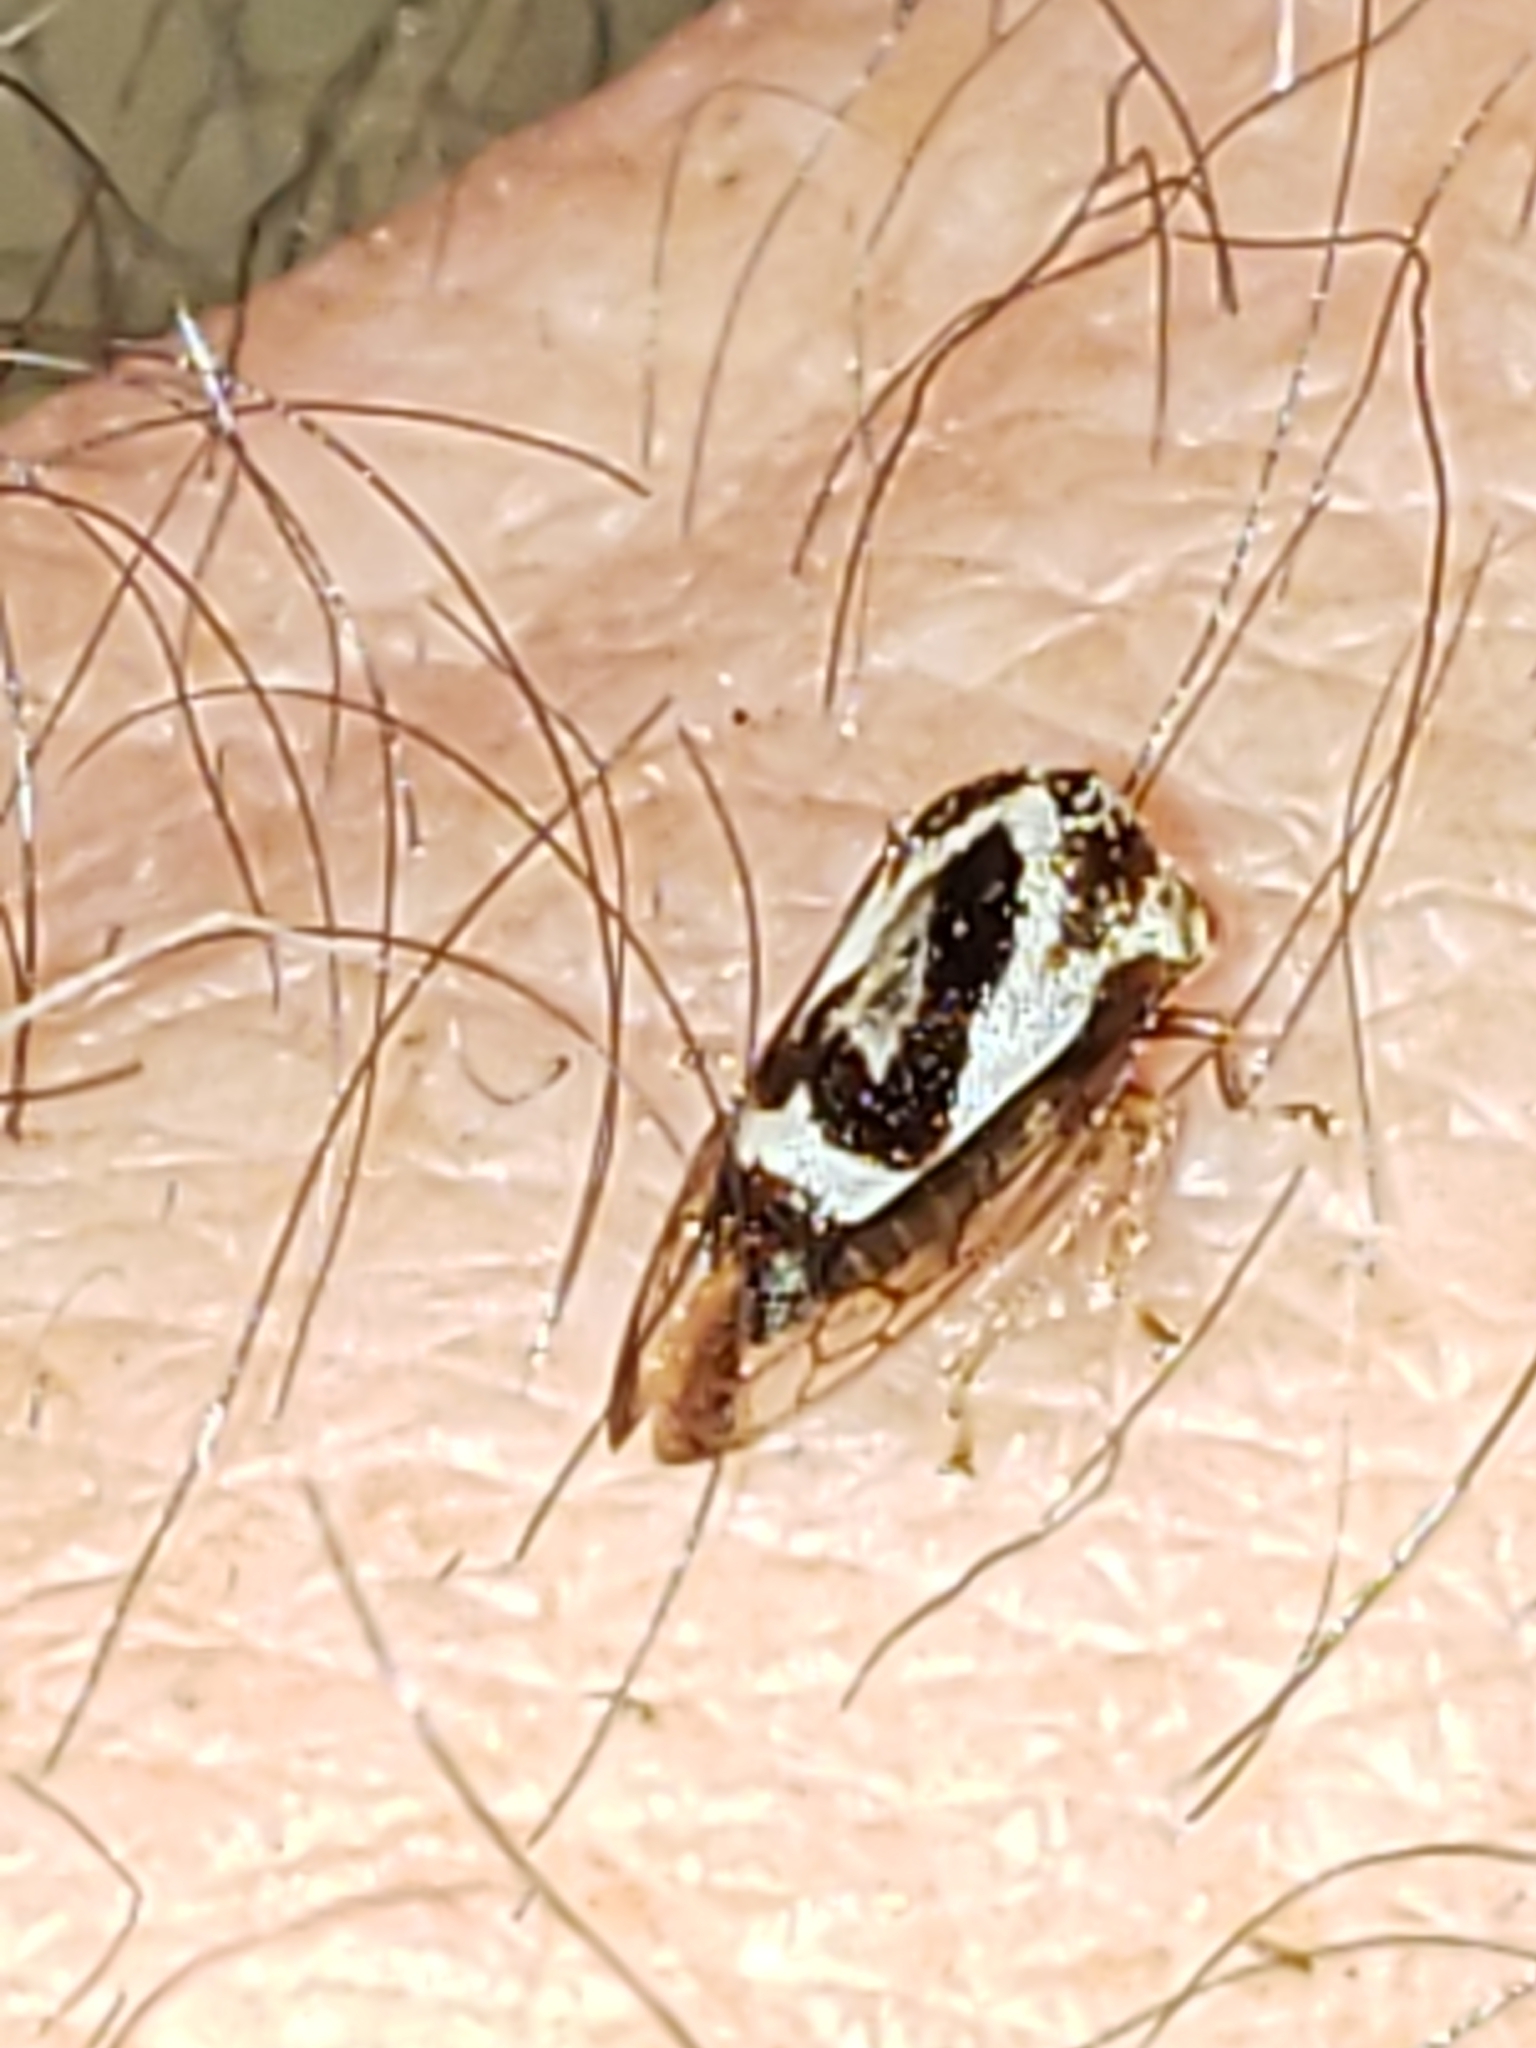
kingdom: Animalia
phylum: Arthropoda
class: Insecta
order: Hemiptera
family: Membracidae
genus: Cyrtolobus
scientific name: Cyrtolobus vau
